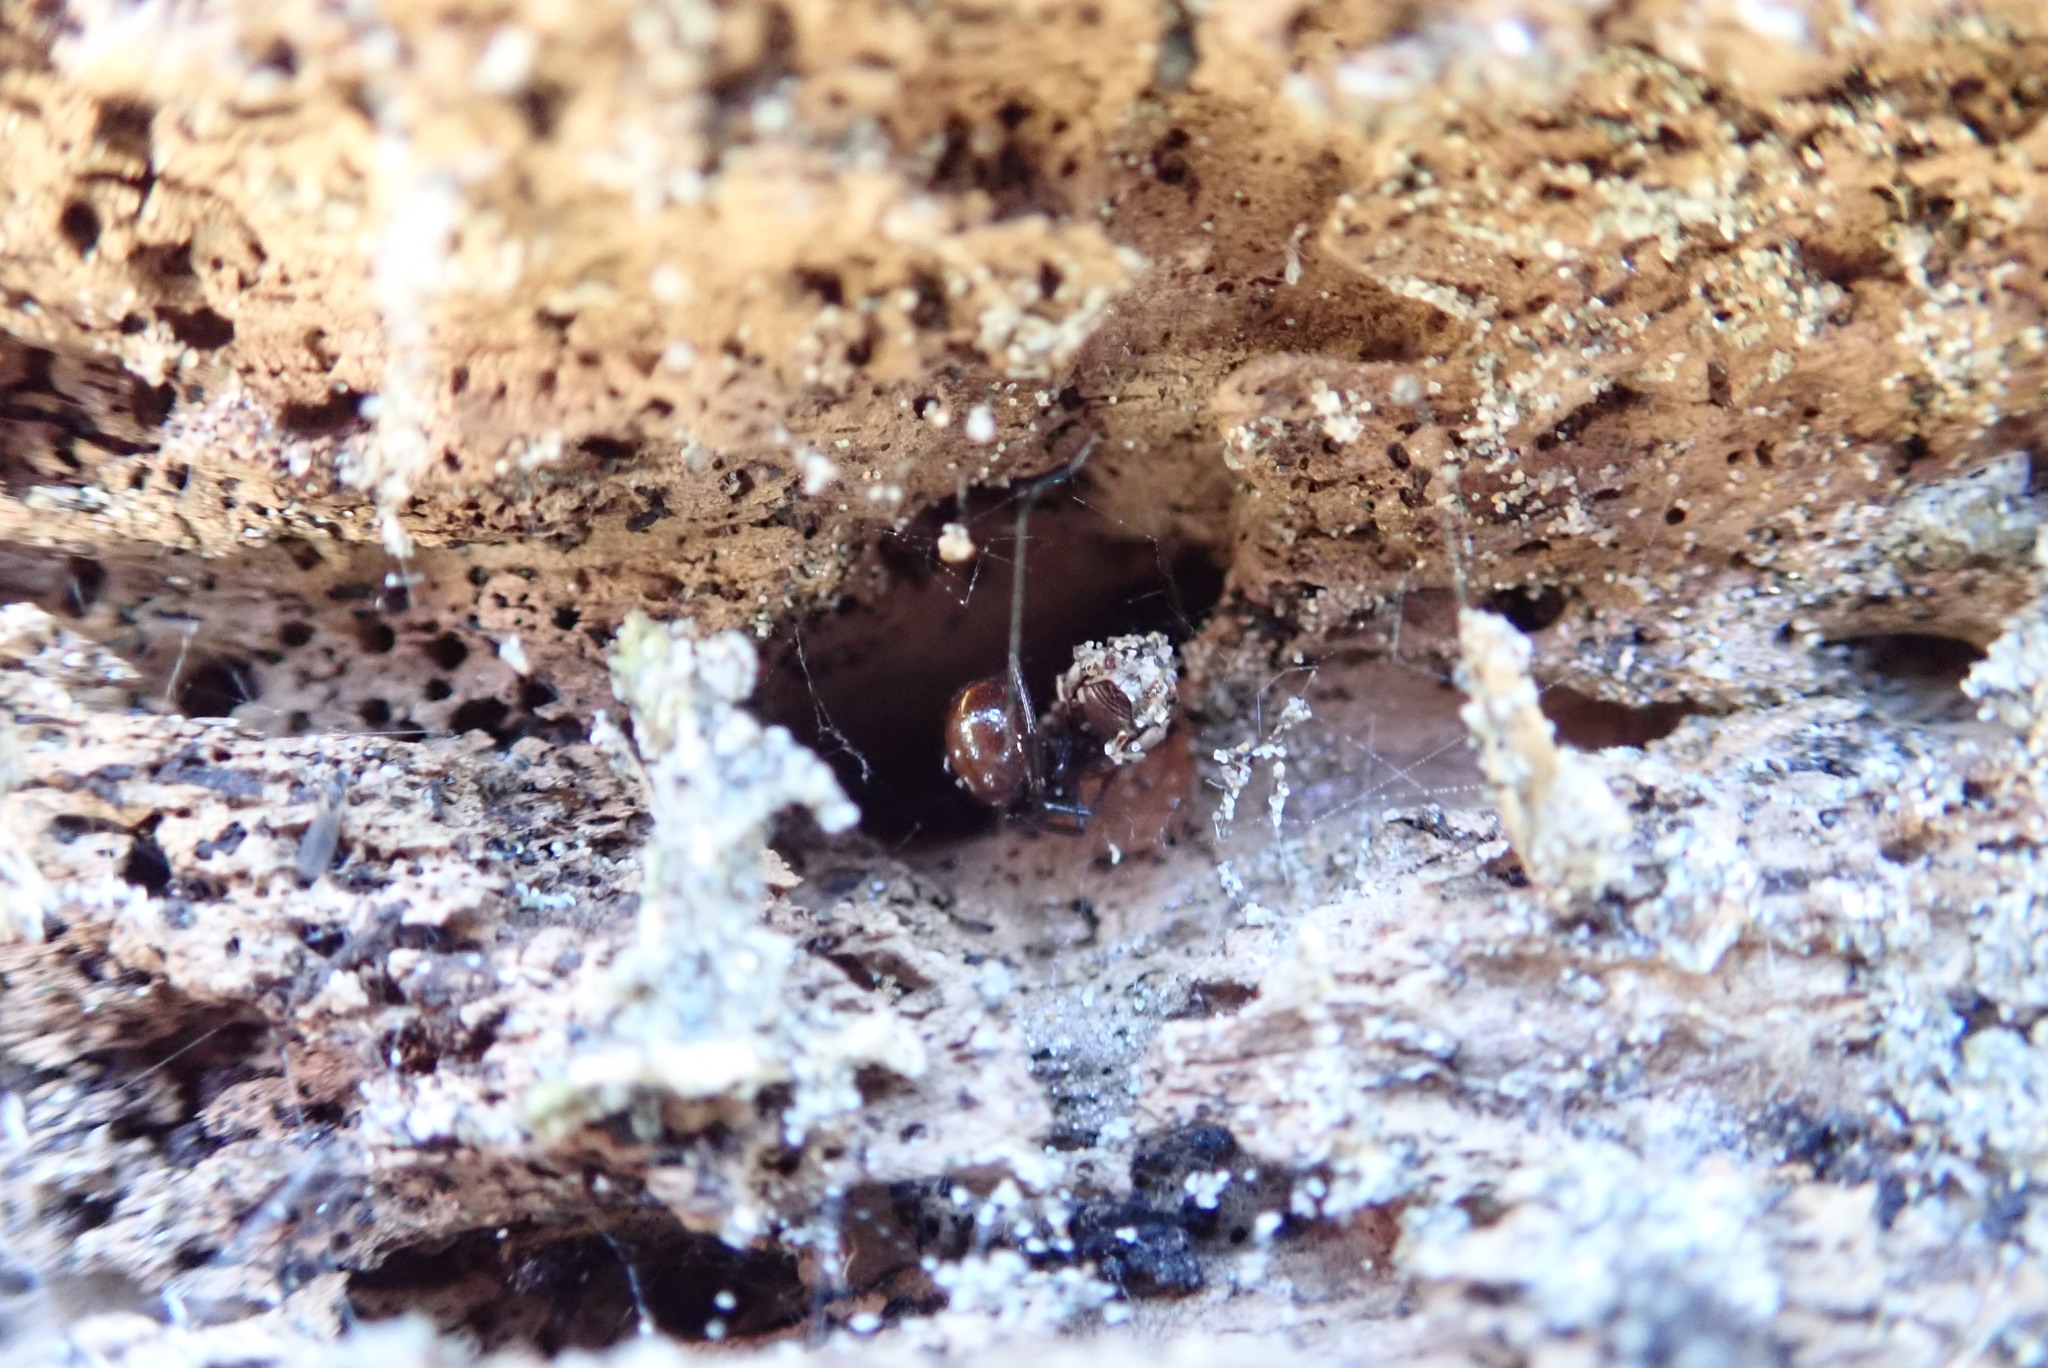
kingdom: Animalia
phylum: Arthropoda
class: Arachnida
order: Araneae
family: Theridiidae
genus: Steatoda
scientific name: Steatoda capensis
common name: Cobweb weaver
